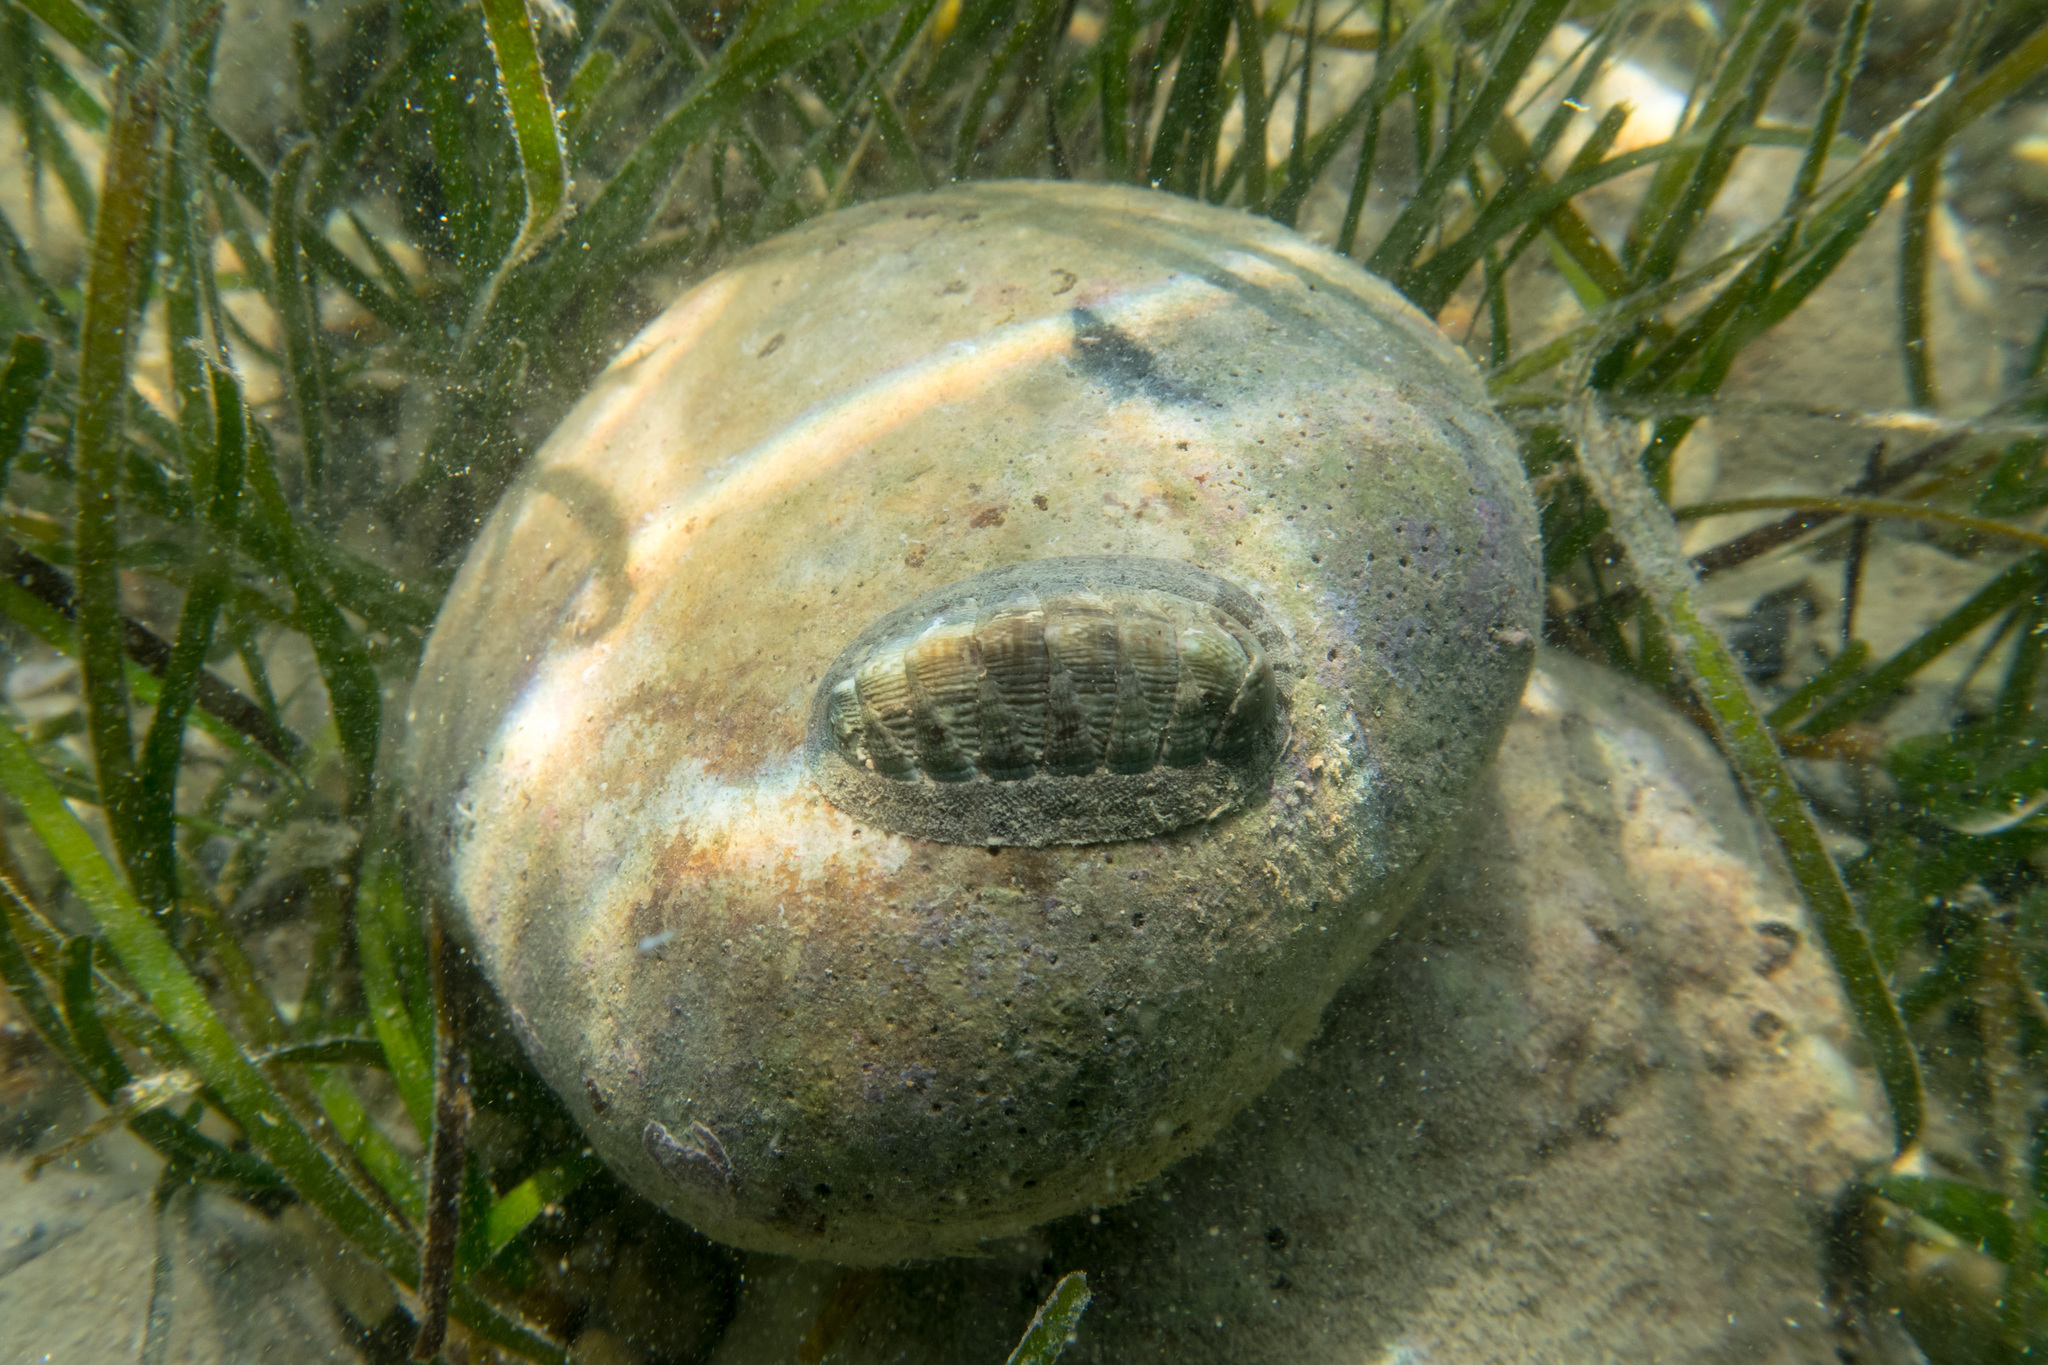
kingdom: Animalia
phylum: Mollusca
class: Polyplacophora
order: Chitonida
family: Chitonidae
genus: Rhyssoplax
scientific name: Rhyssoplax olivacea
